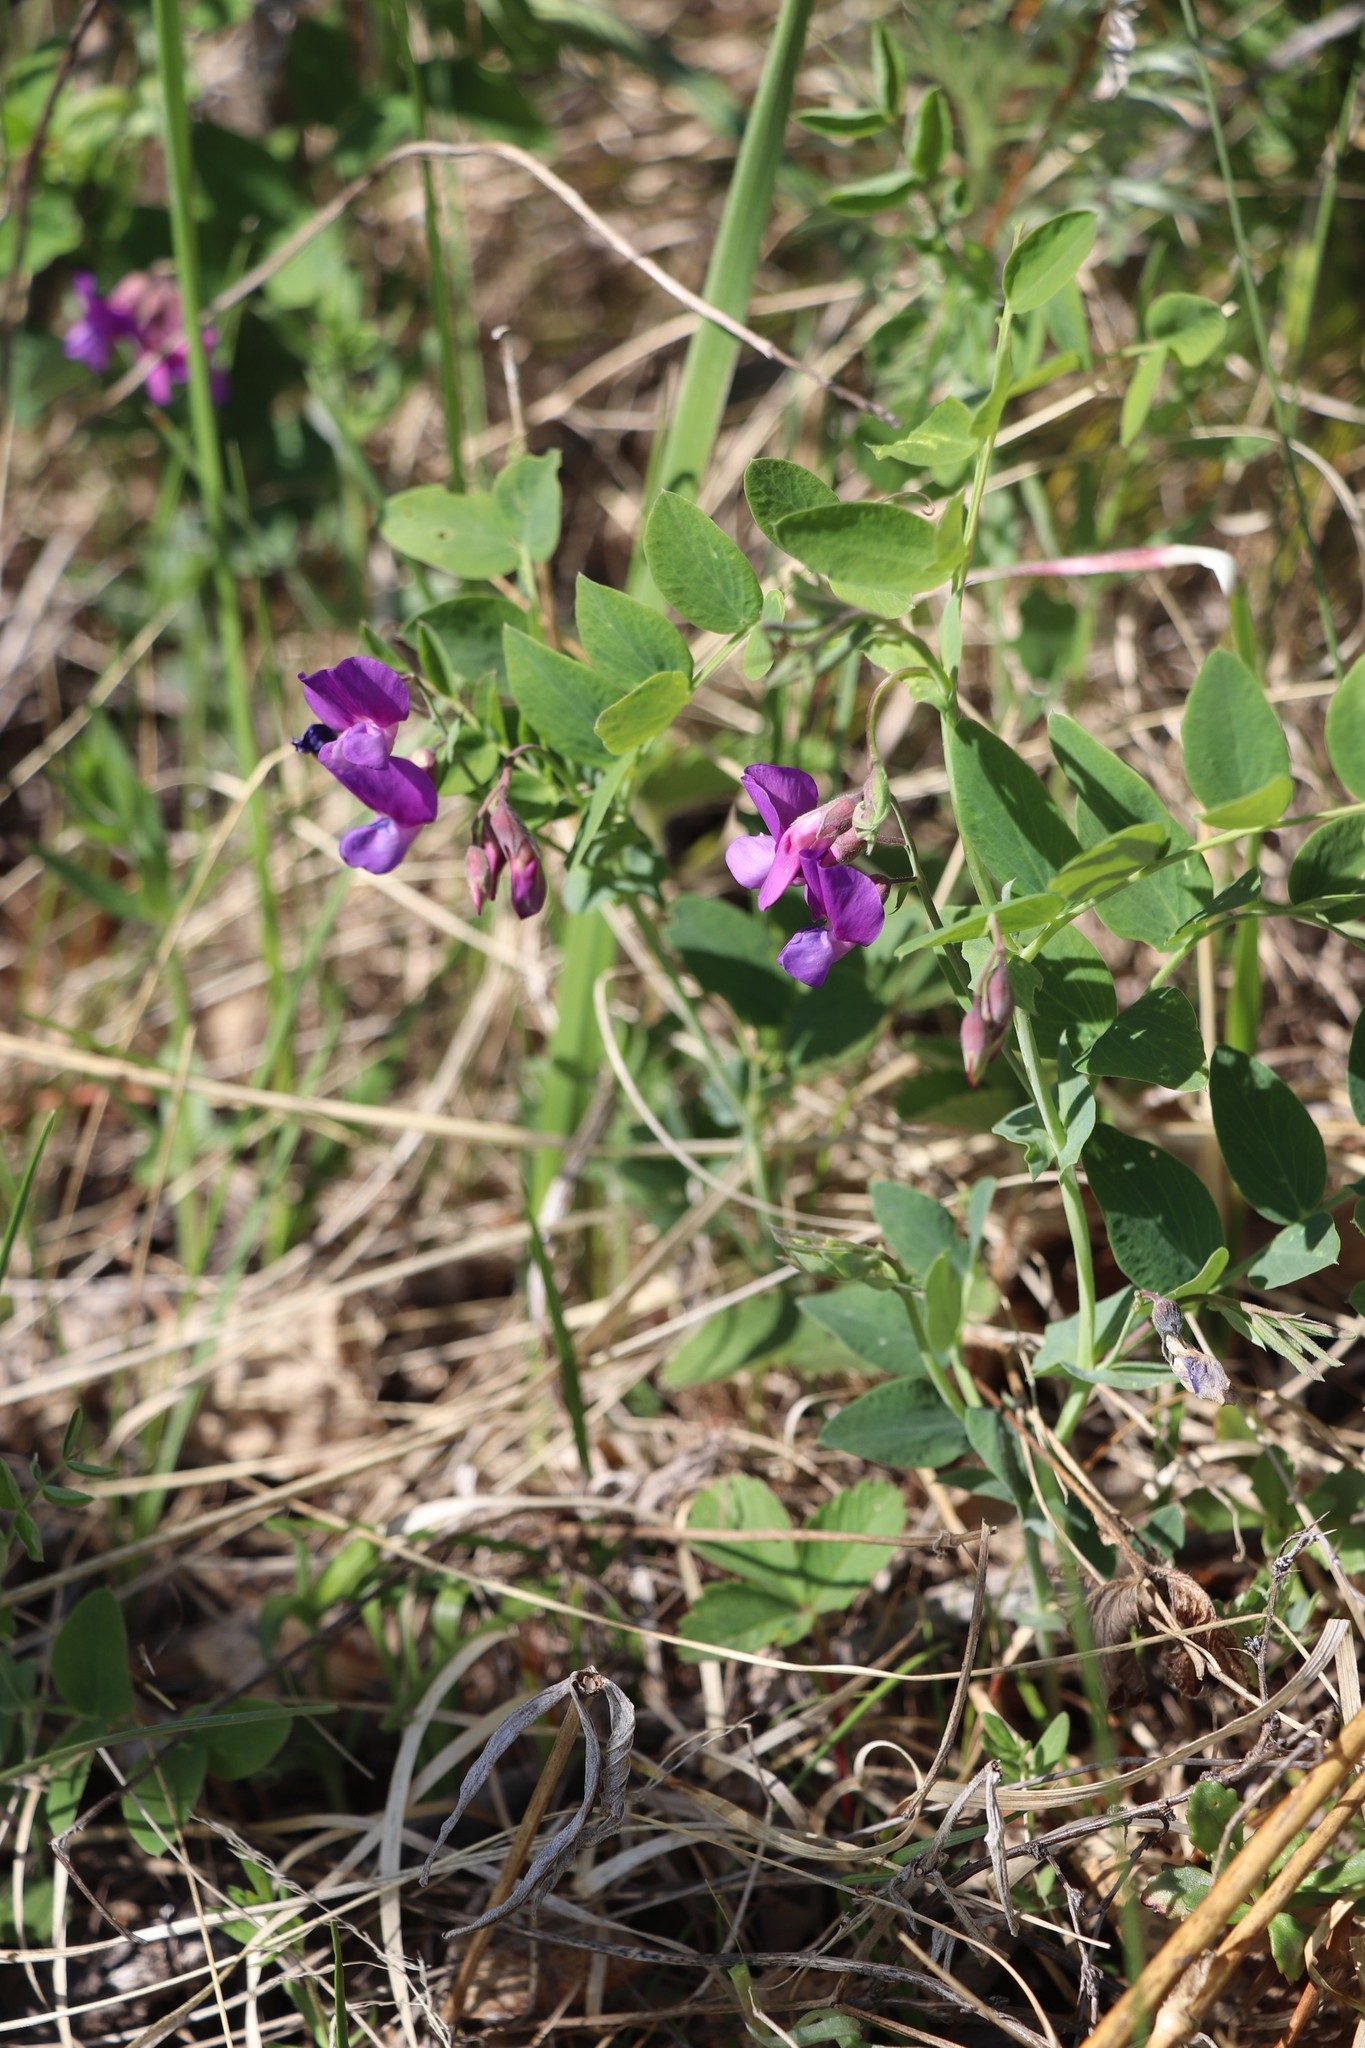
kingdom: Plantae
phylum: Tracheophyta
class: Magnoliopsida
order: Fabales
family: Fabaceae
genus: Lathyrus
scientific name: Lathyrus humilis
